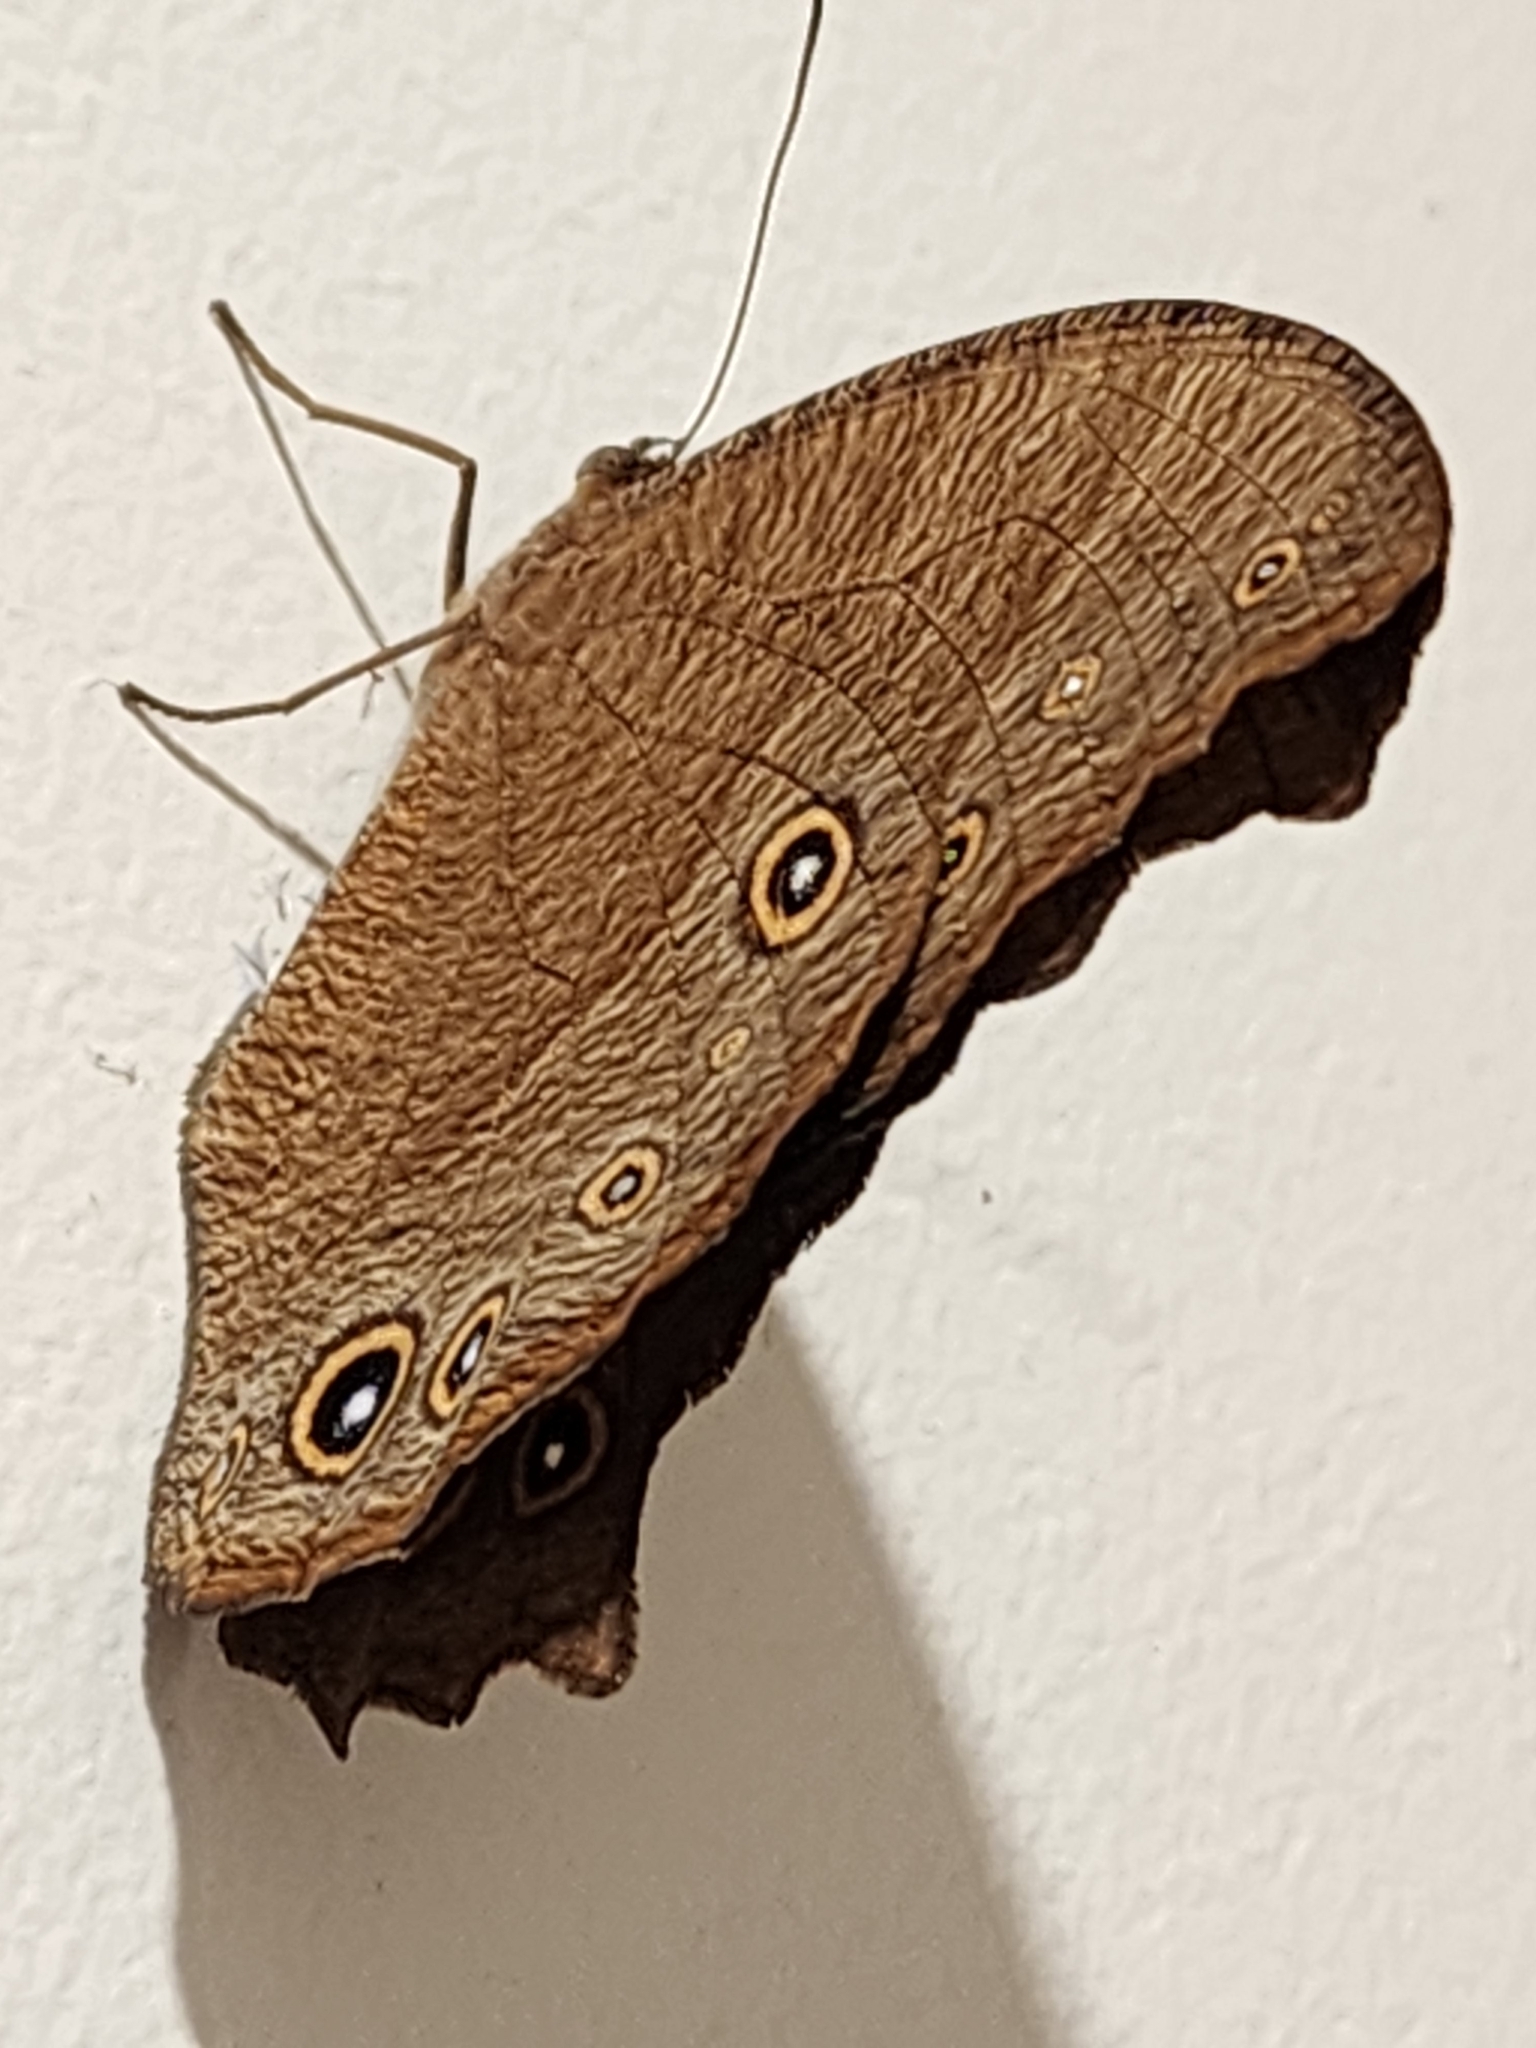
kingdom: Animalia
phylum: Arthropoda
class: Insecta
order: Lepidoptera
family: Nymphalidae
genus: Melanitis
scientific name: Melanitis leda
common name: Twilight brown
